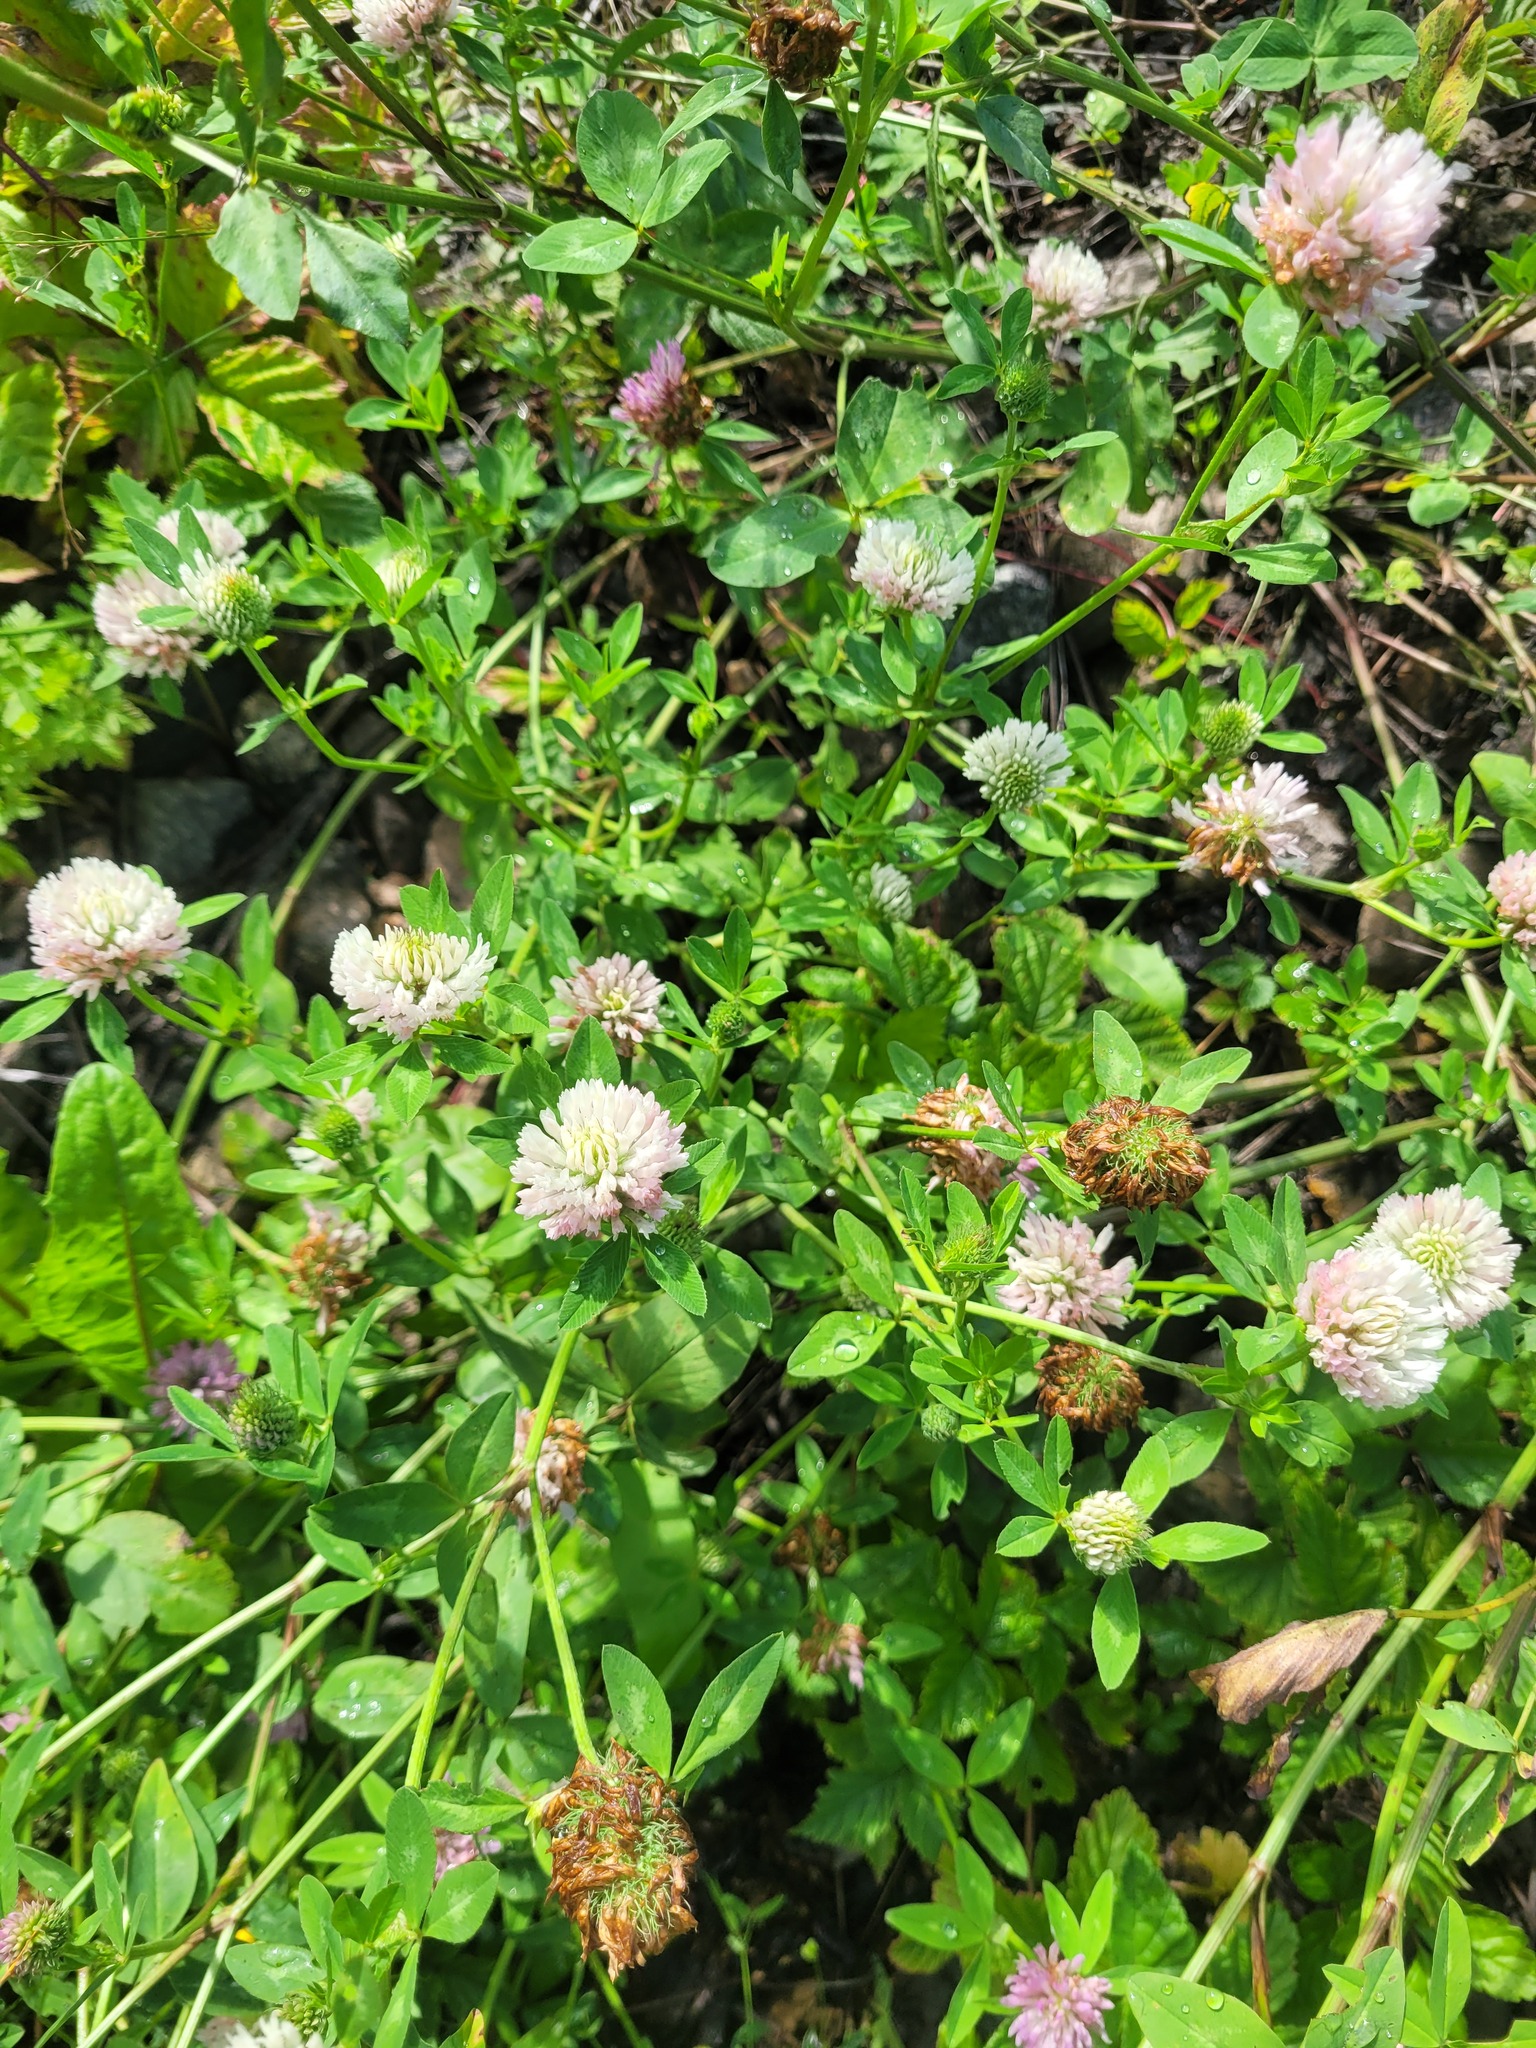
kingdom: Plantae
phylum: Tracheophyta
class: Magnoliopsida
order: Fabales
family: Fabaceae
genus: Trifolium
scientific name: Trifolium pratense
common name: Red clover
